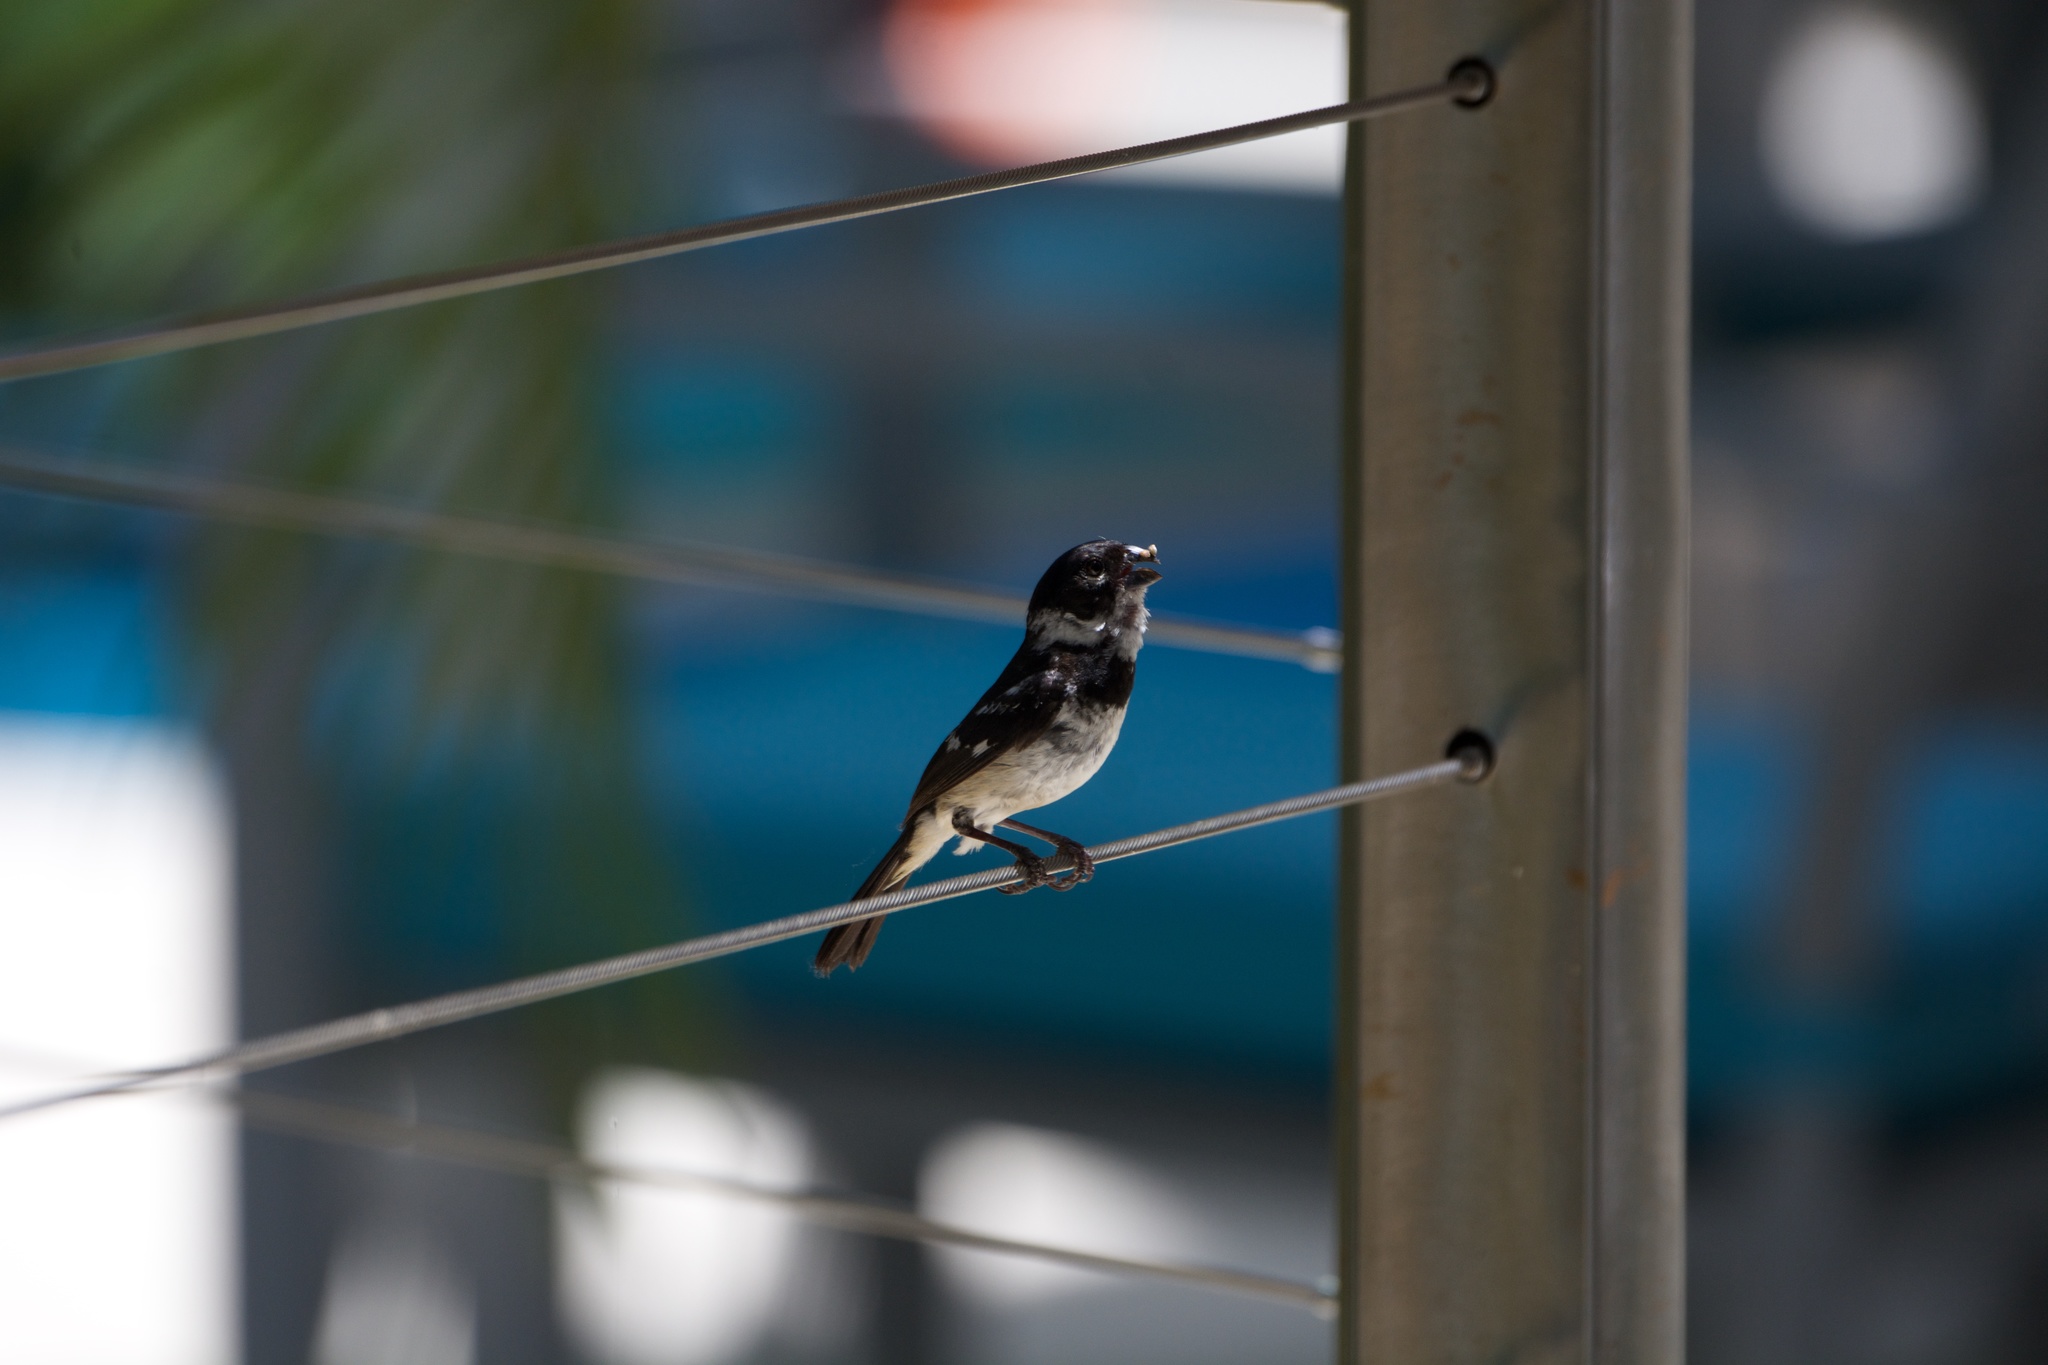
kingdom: Animalia
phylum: Chordata
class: Aves
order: Passeriformes
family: Thraupidae
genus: Sporophila
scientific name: Sporophila morelleti
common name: Morelet's seedeater
